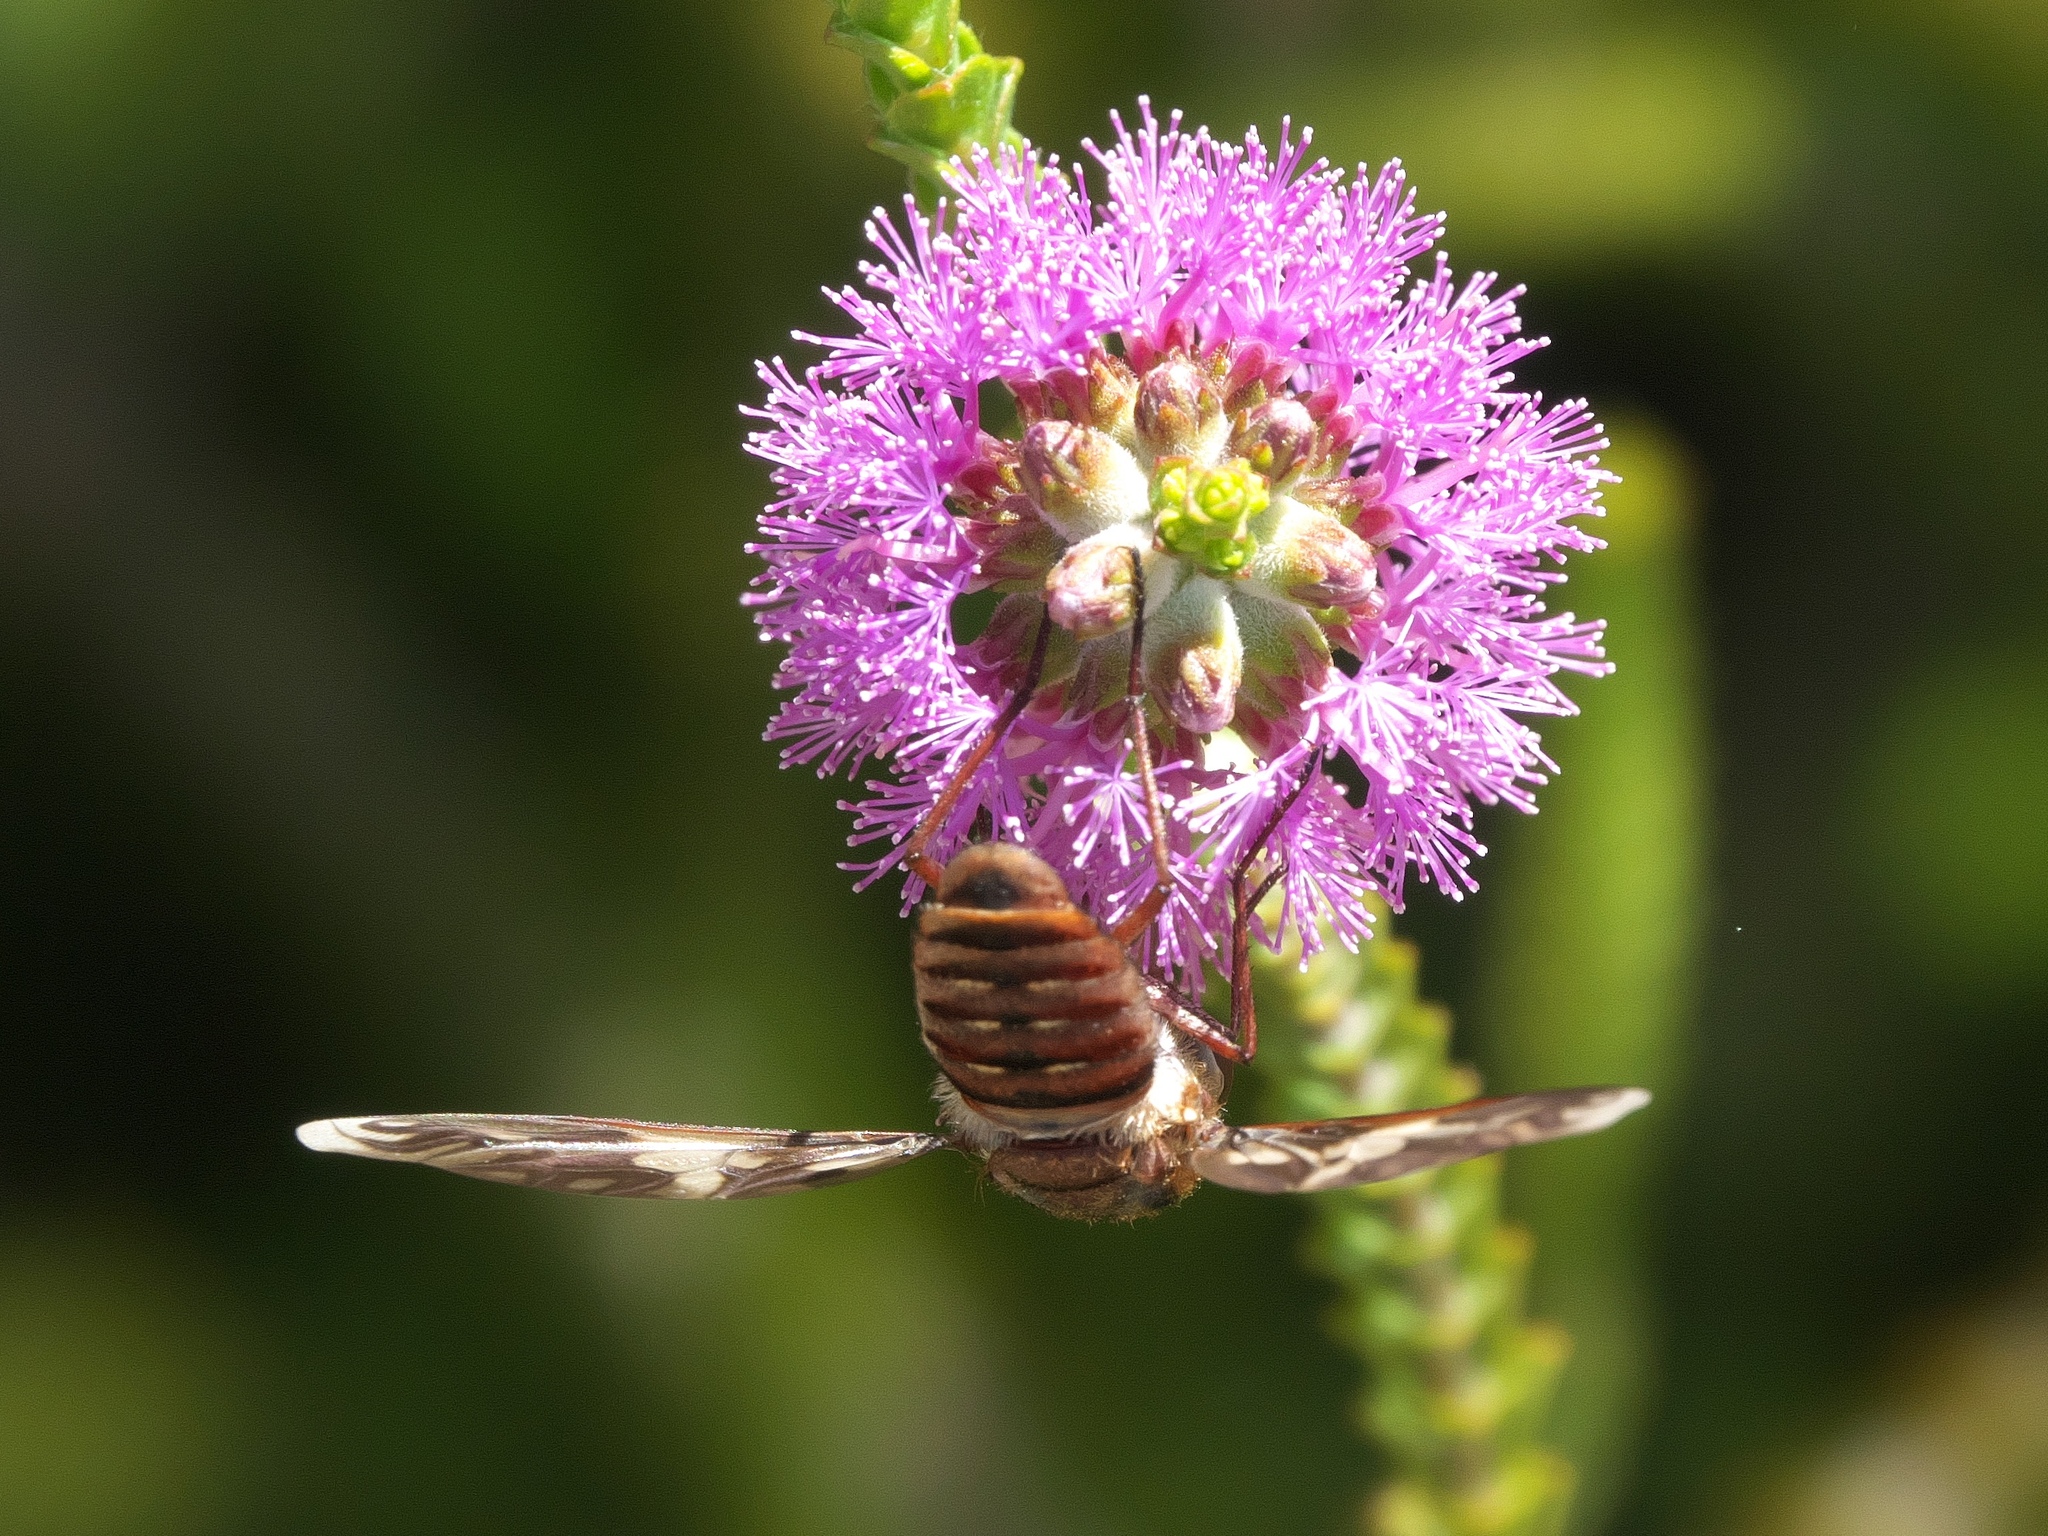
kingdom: Animalia
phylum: Arthropoda
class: Insecta
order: Diptera
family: Bombyliidae
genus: Comptosia
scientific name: Comptosia tendens
